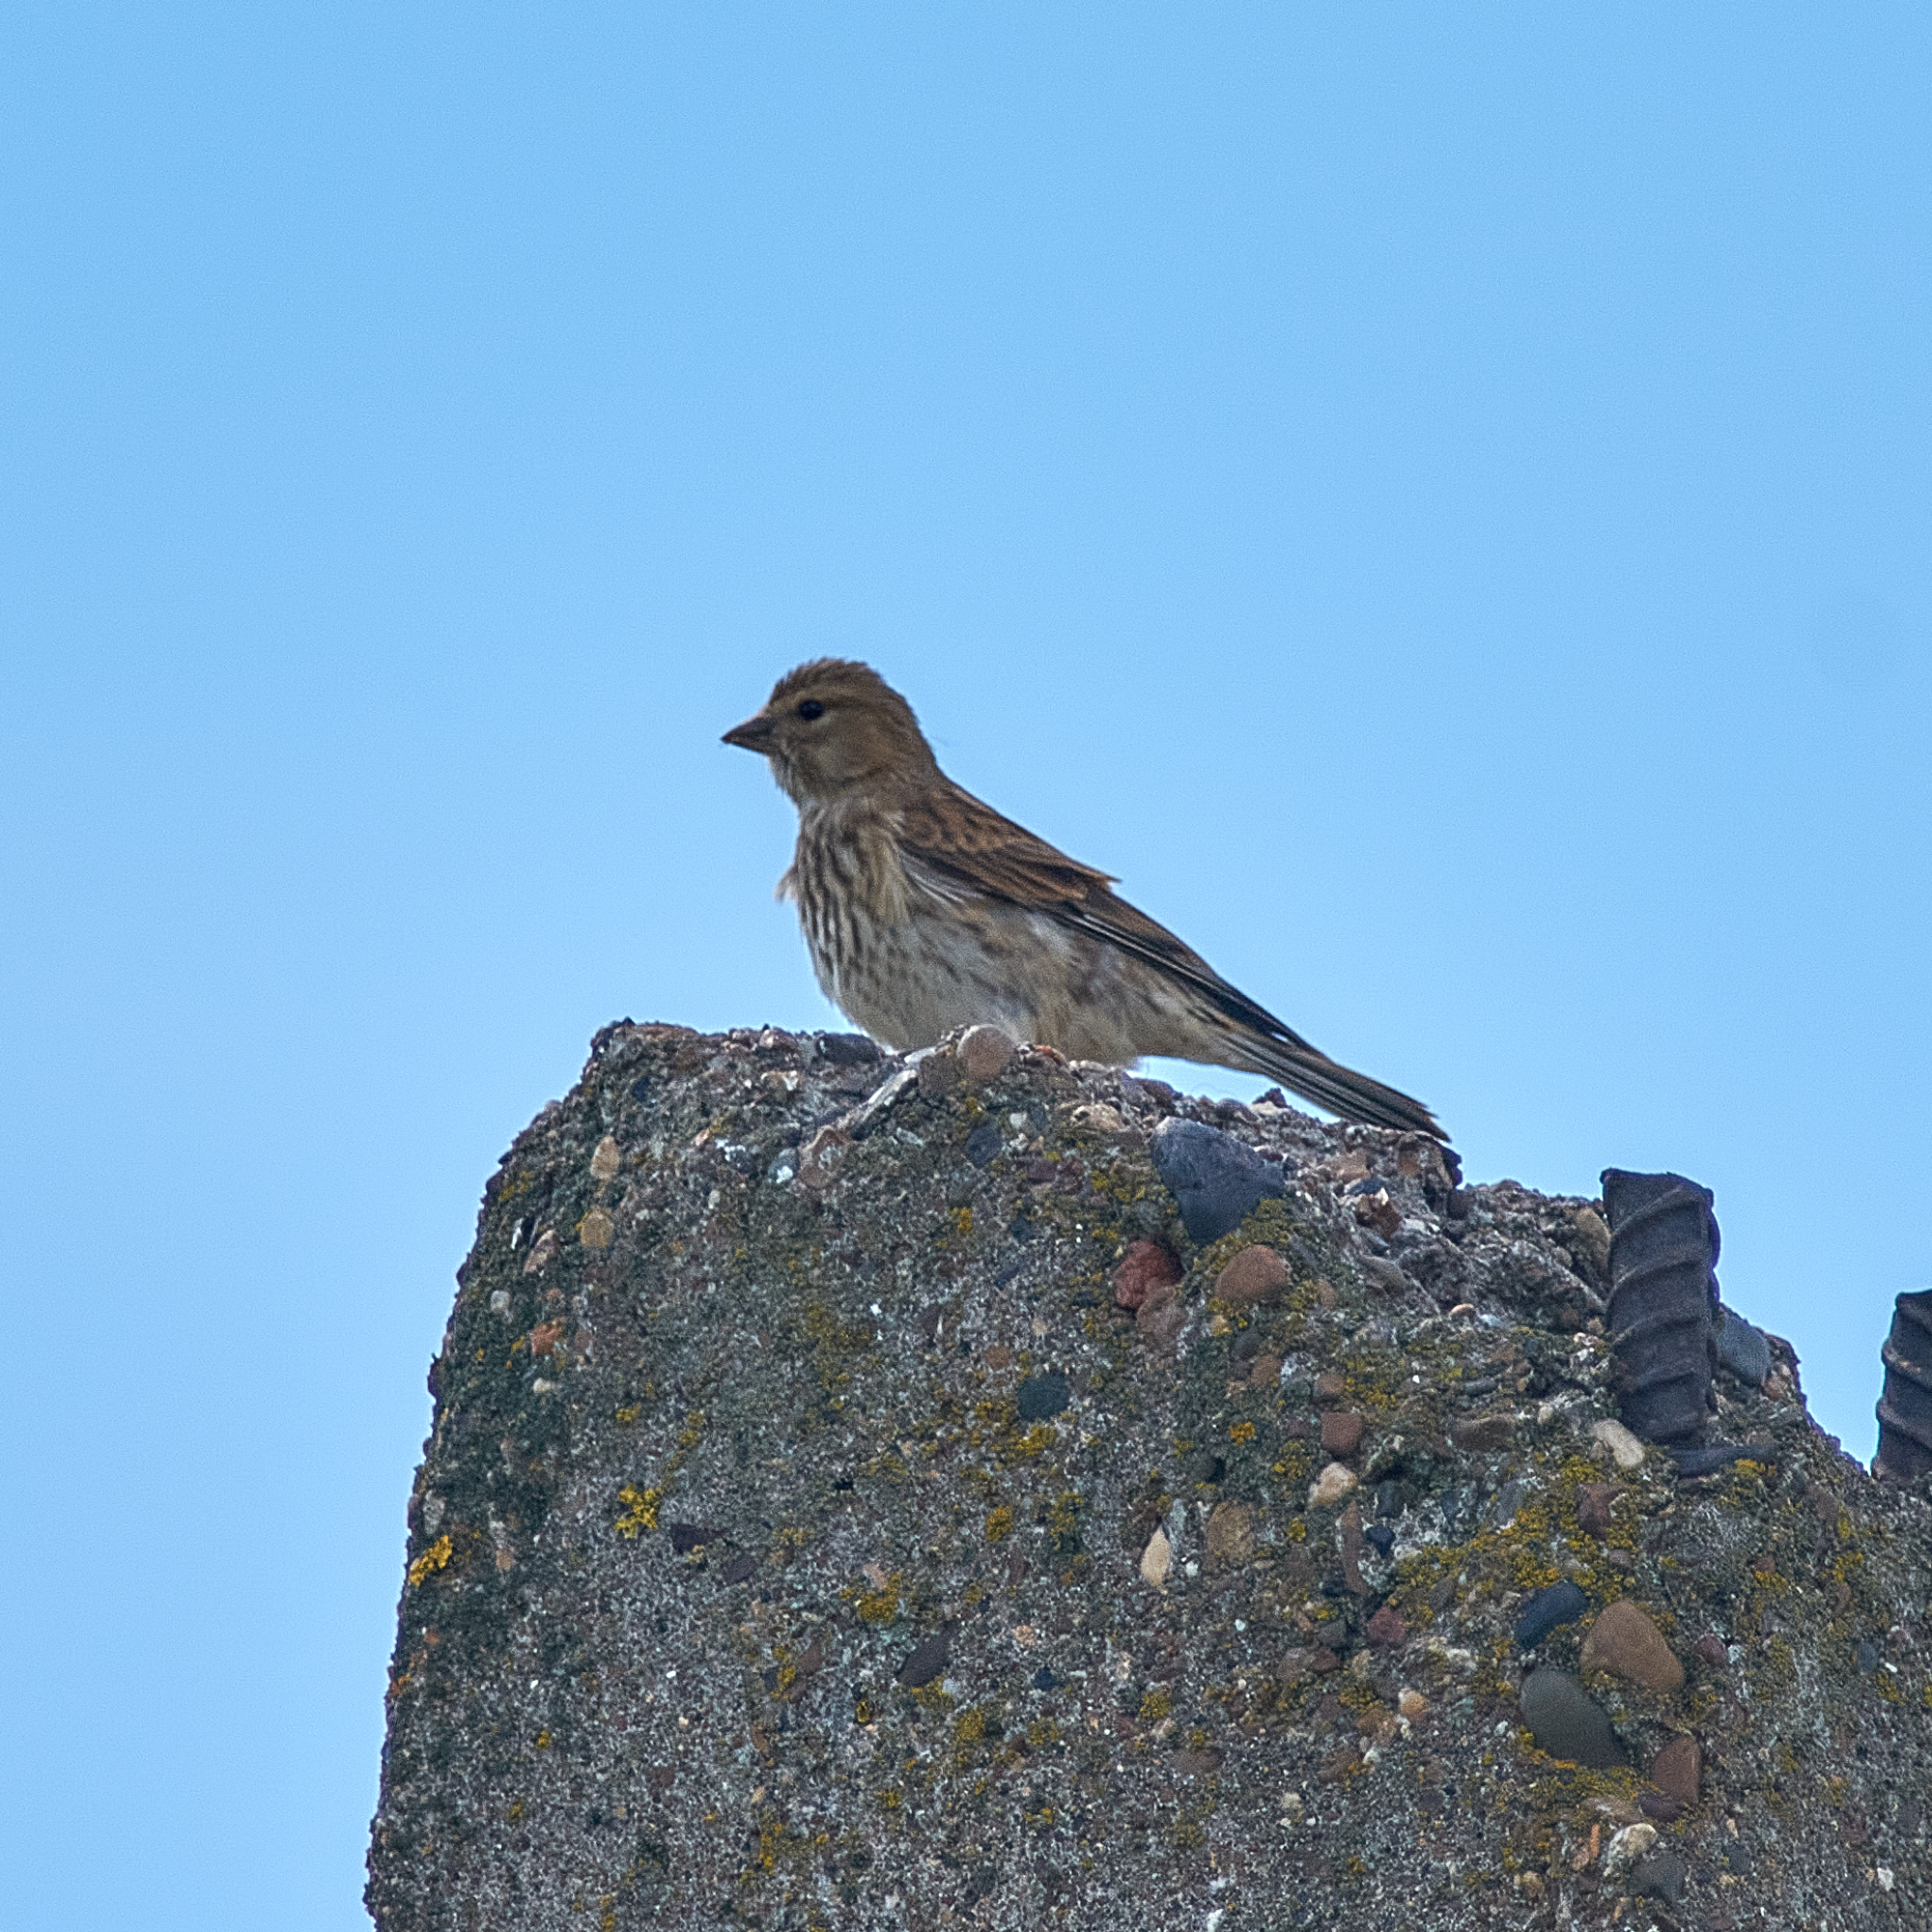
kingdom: Animalia
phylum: Chordata
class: Aves
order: Passeriformes
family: Fringillidae
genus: Linaria
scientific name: Linaria cannabina
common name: Common linnet
